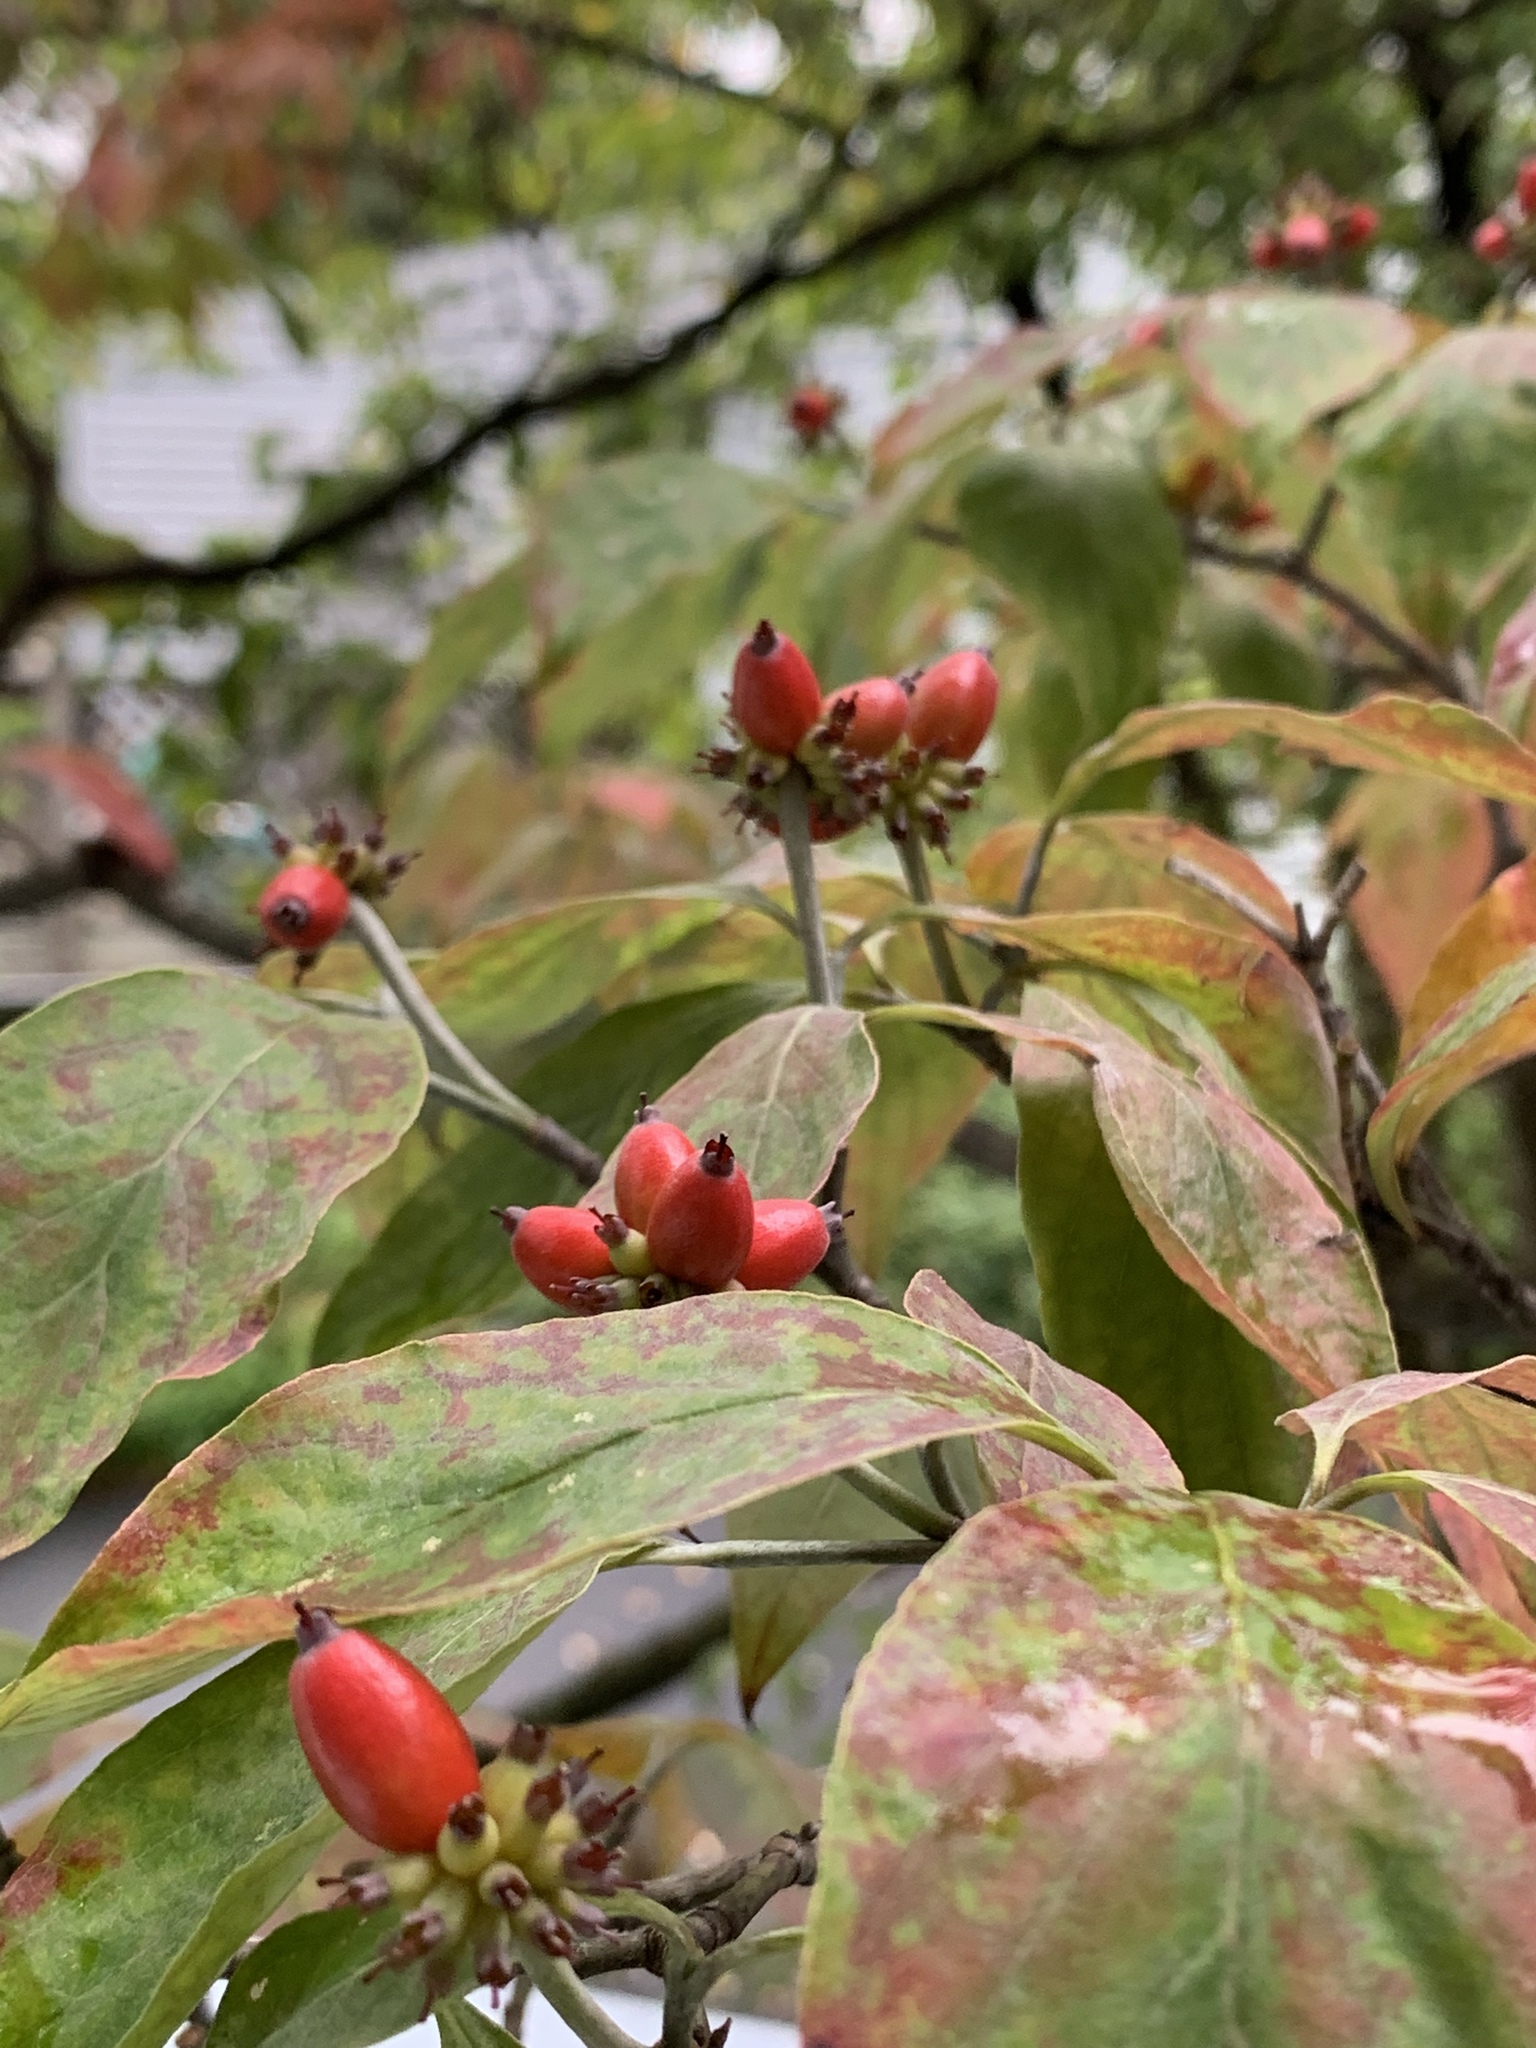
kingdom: Plantae
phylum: Tracheophyta
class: Magnoliopsida
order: Cornales
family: Cornaceae
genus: Cornus
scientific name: Cornus florida
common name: Flowering dogwood
